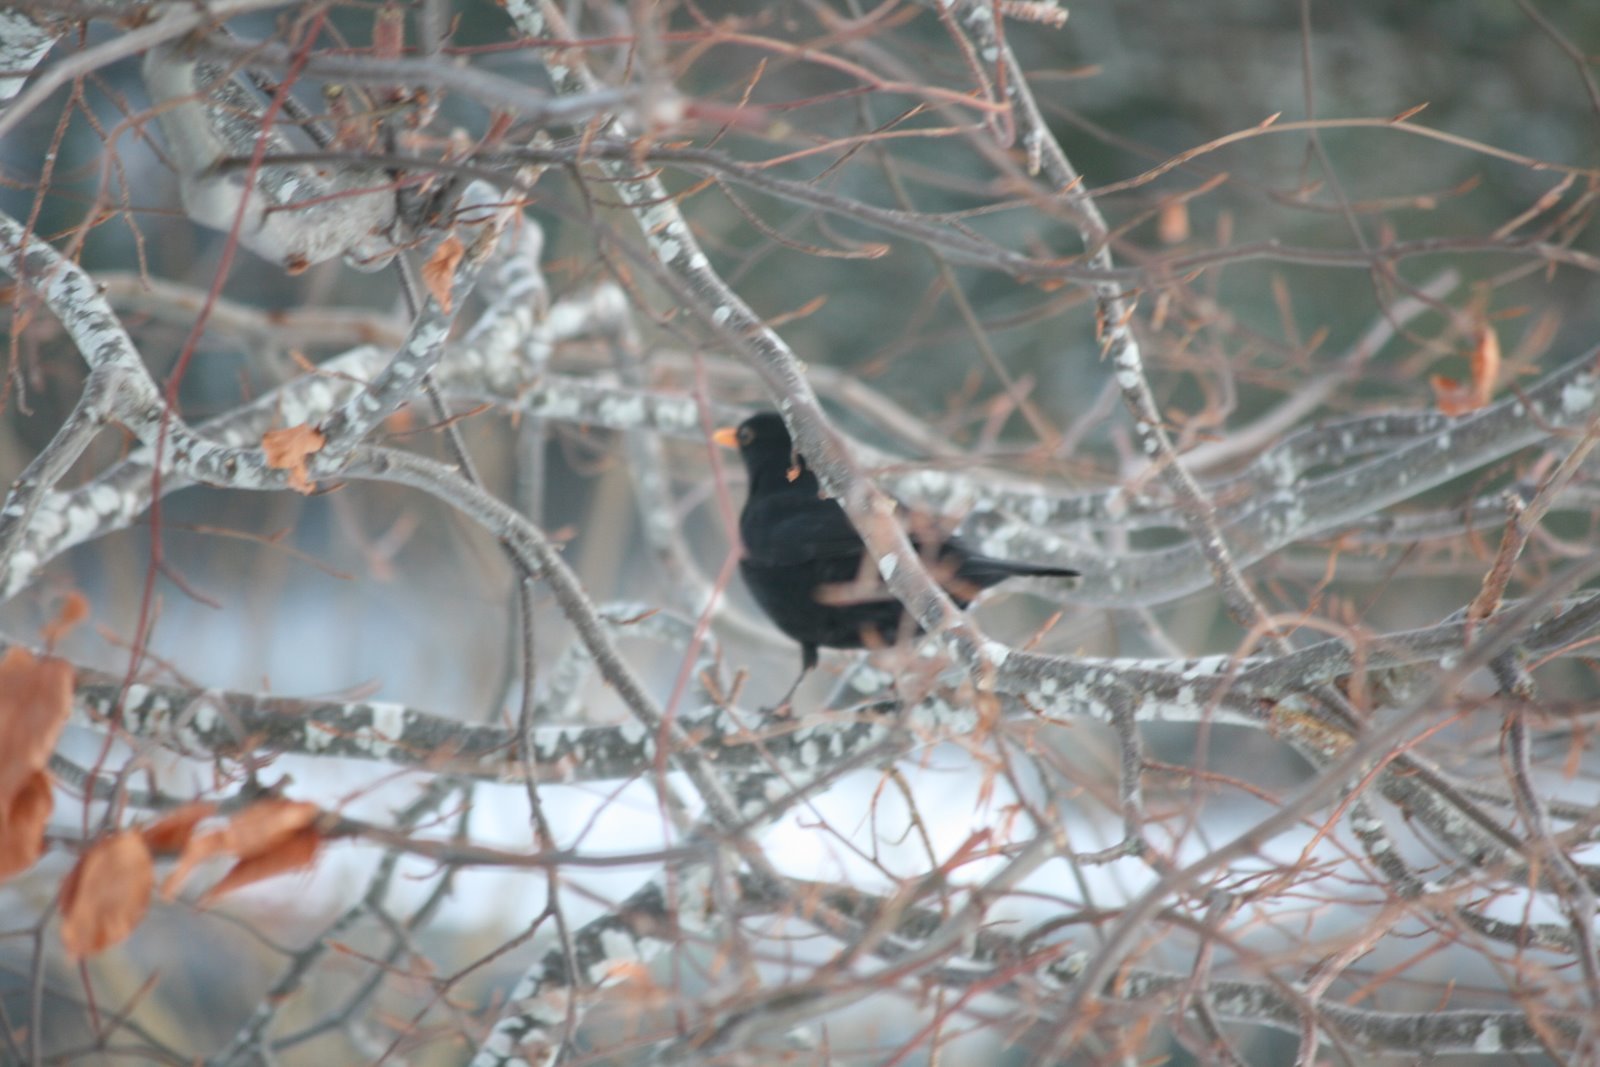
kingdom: Animalia
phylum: Chordata
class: Aves
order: Passeriformes
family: Turdidae
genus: Turdus
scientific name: Turdus merula
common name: Common blackbird
